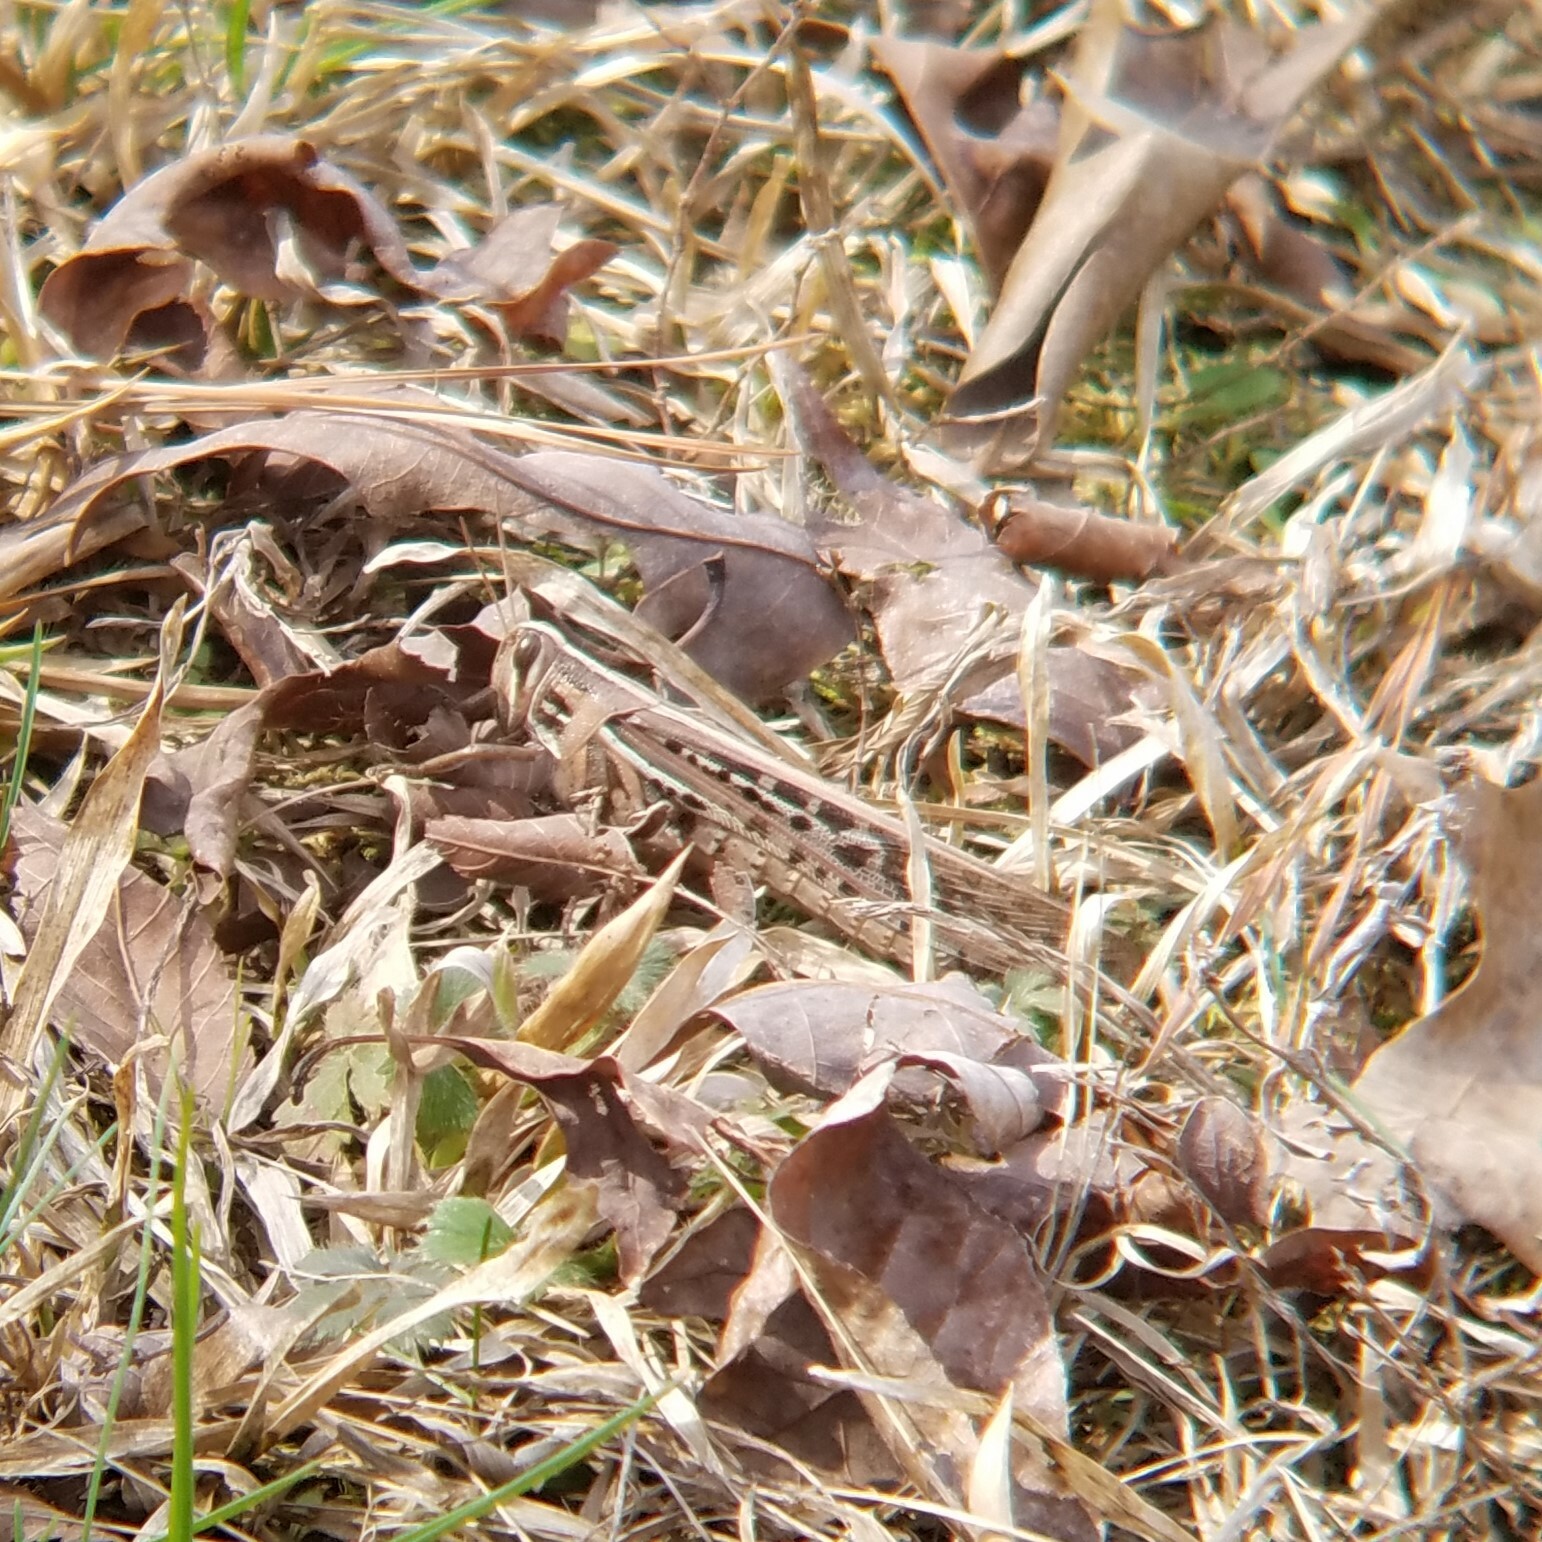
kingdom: Animalia
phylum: Arthropoda
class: Insecta
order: Orthoptera
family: Acrididae
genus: Schistocerca
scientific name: Schistocerca americana
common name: American bird locust
